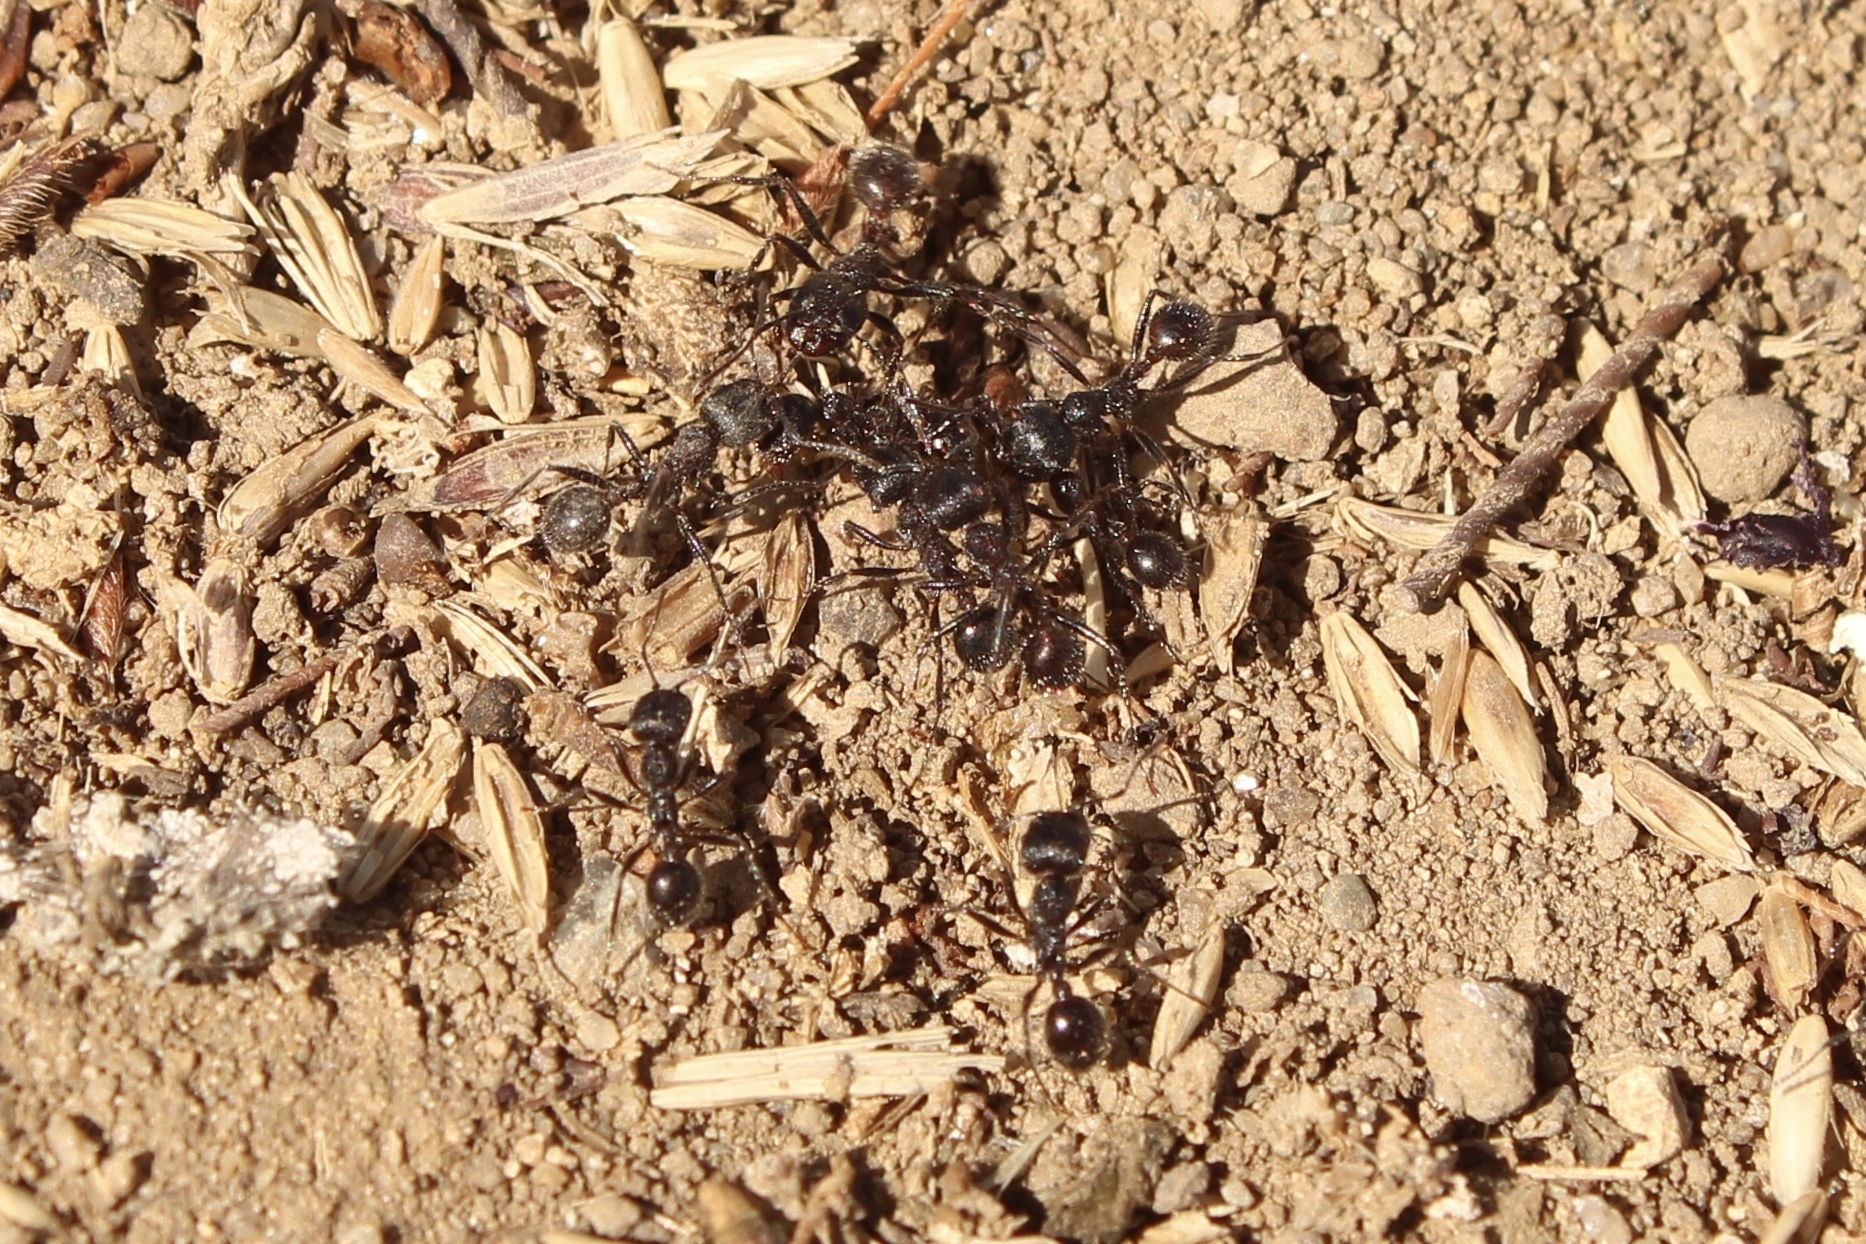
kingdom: Animalia
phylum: Arthropoda
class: Insecta
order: Hymenoptera
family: Formicidae
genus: Veromessor
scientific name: Veromessor andrei
